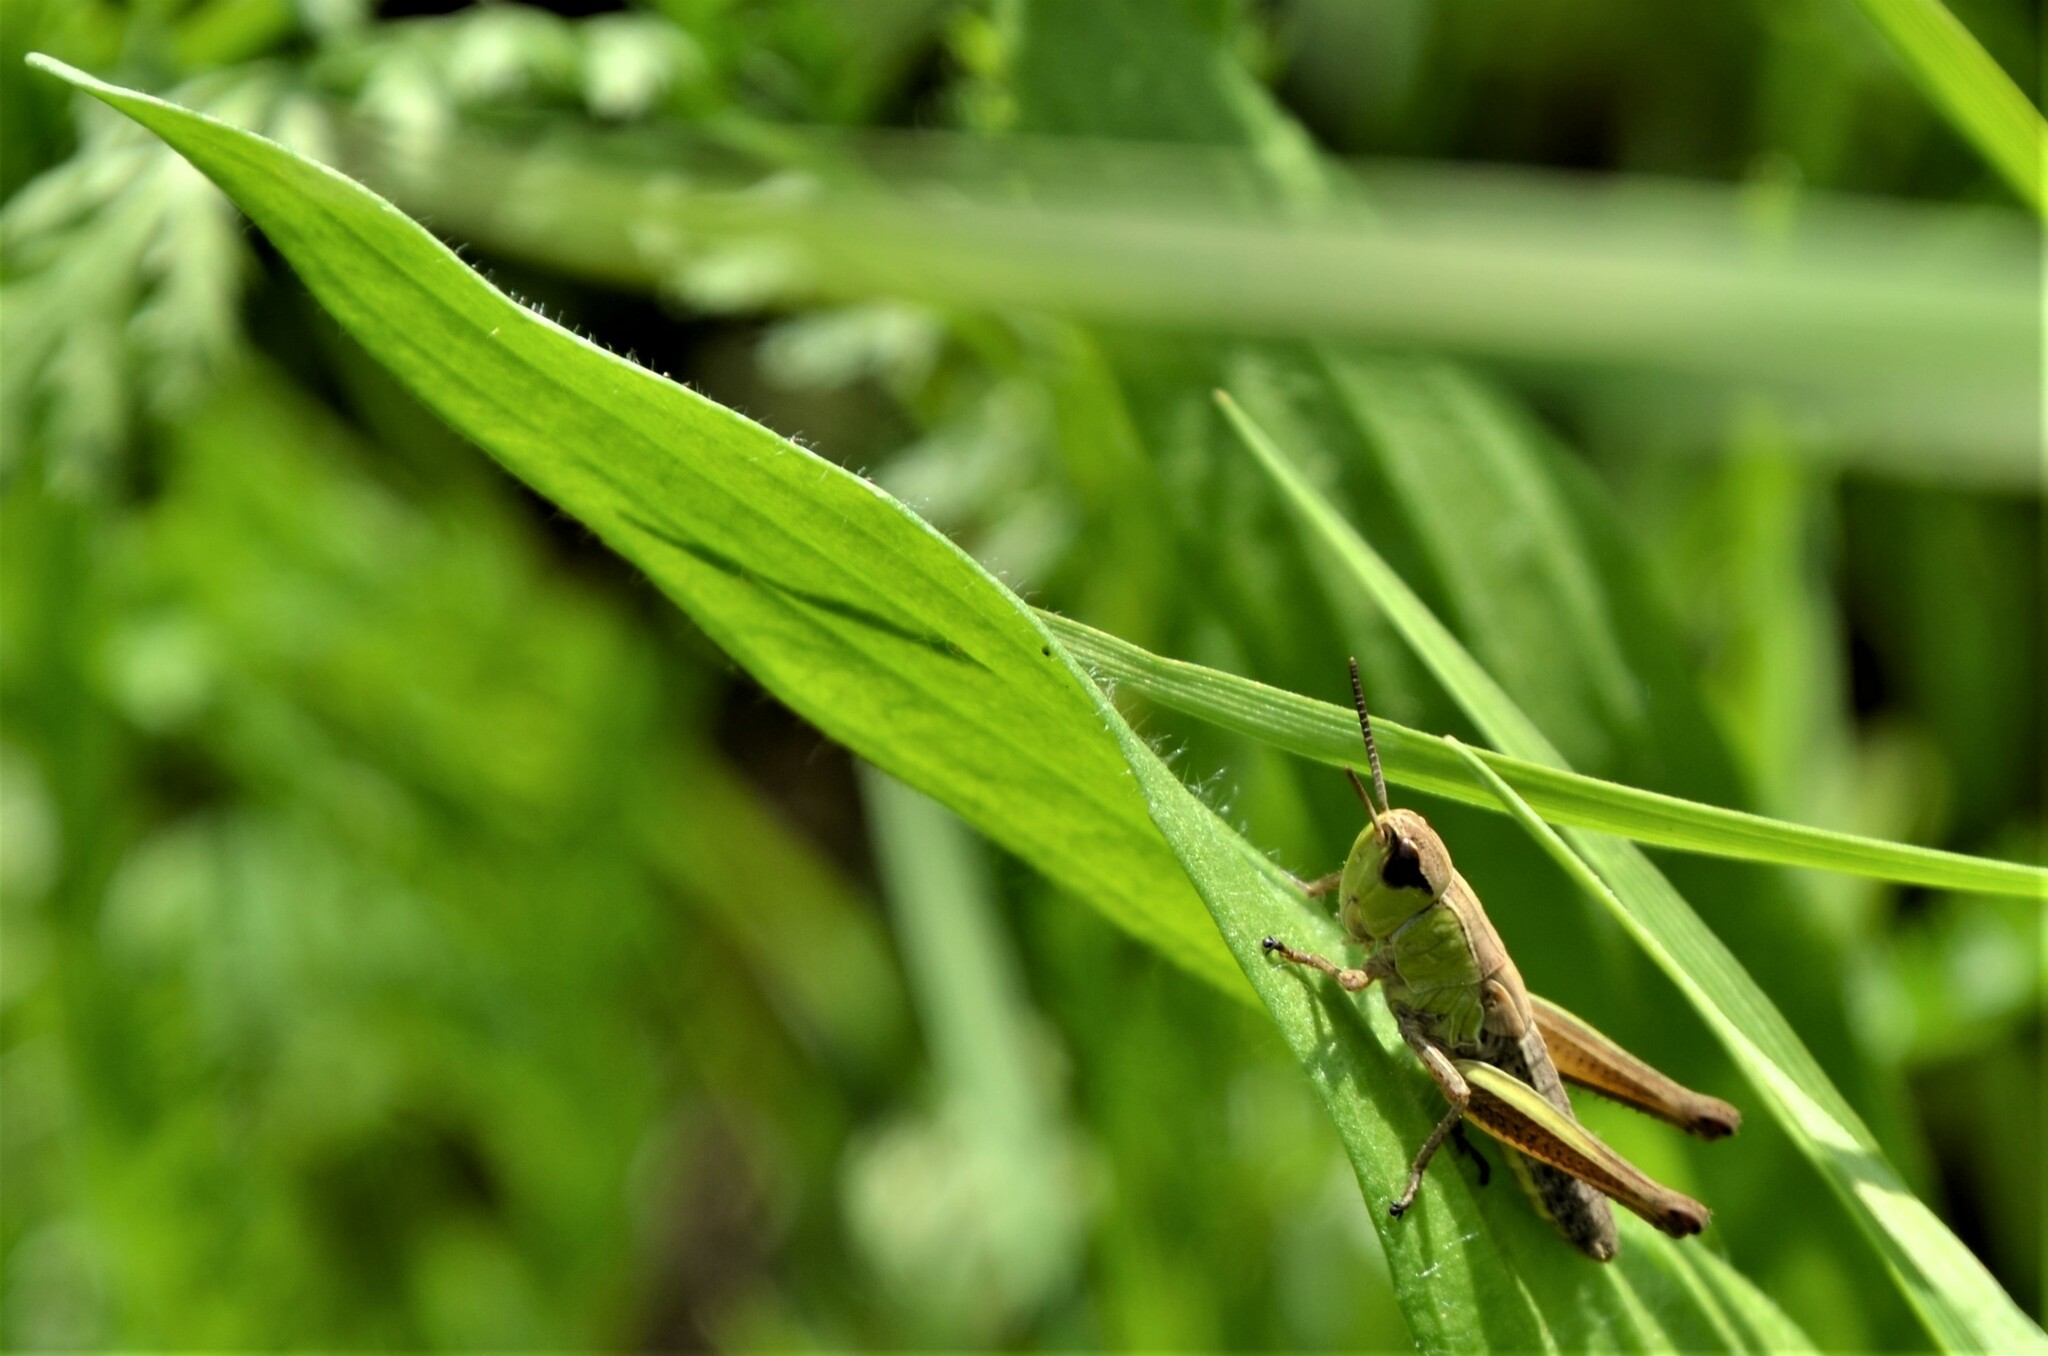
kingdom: Animalia
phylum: Arthropoda
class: Insecta
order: Orthoptera
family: Acrididae
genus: Pseudochorthippus
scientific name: Pseudochorthippus parallelus
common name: Meadow grasshopper
